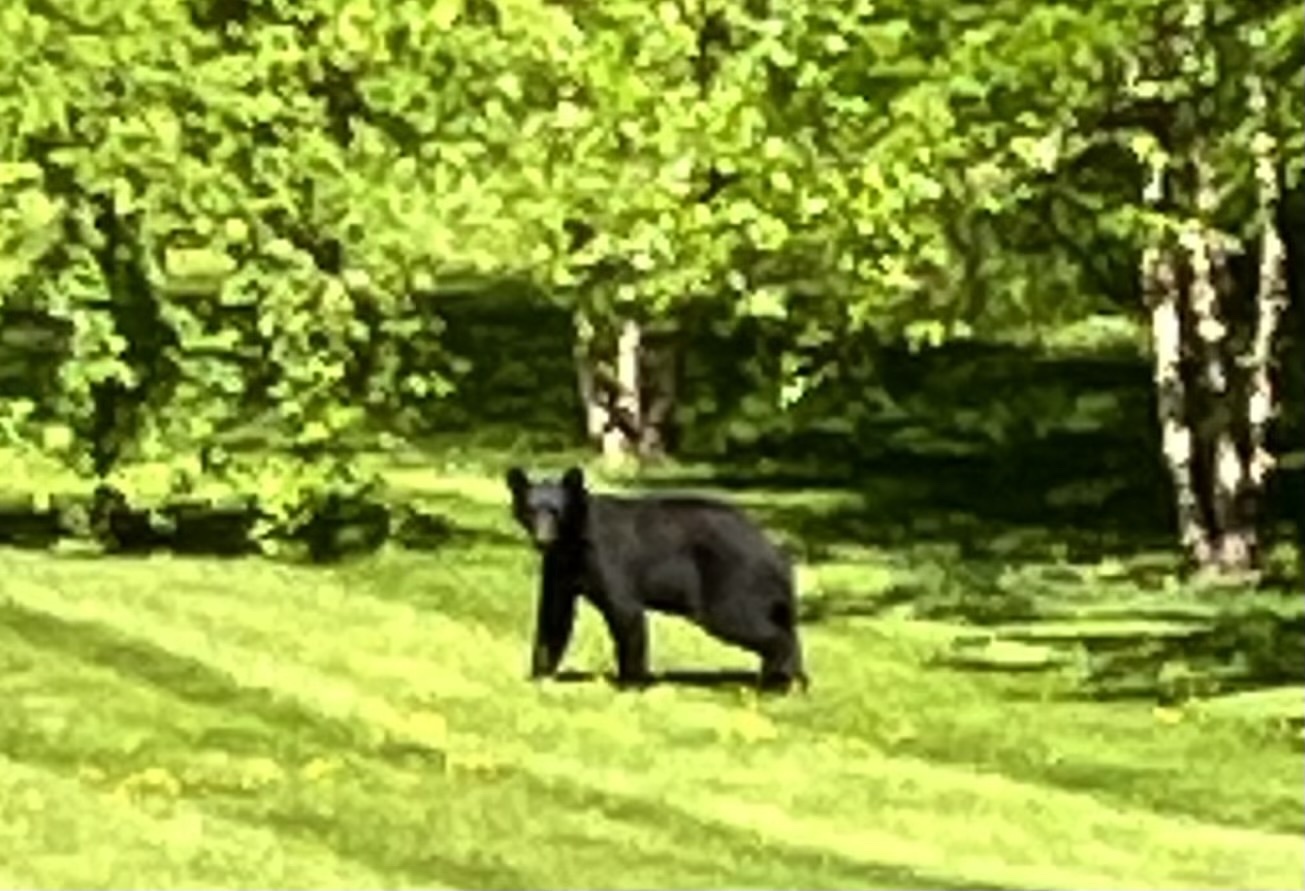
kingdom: Animalia
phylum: Chordata
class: Mammalia
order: Carnivora
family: Ursidae
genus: Ursus
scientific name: Ursus americanus
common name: American black bear
